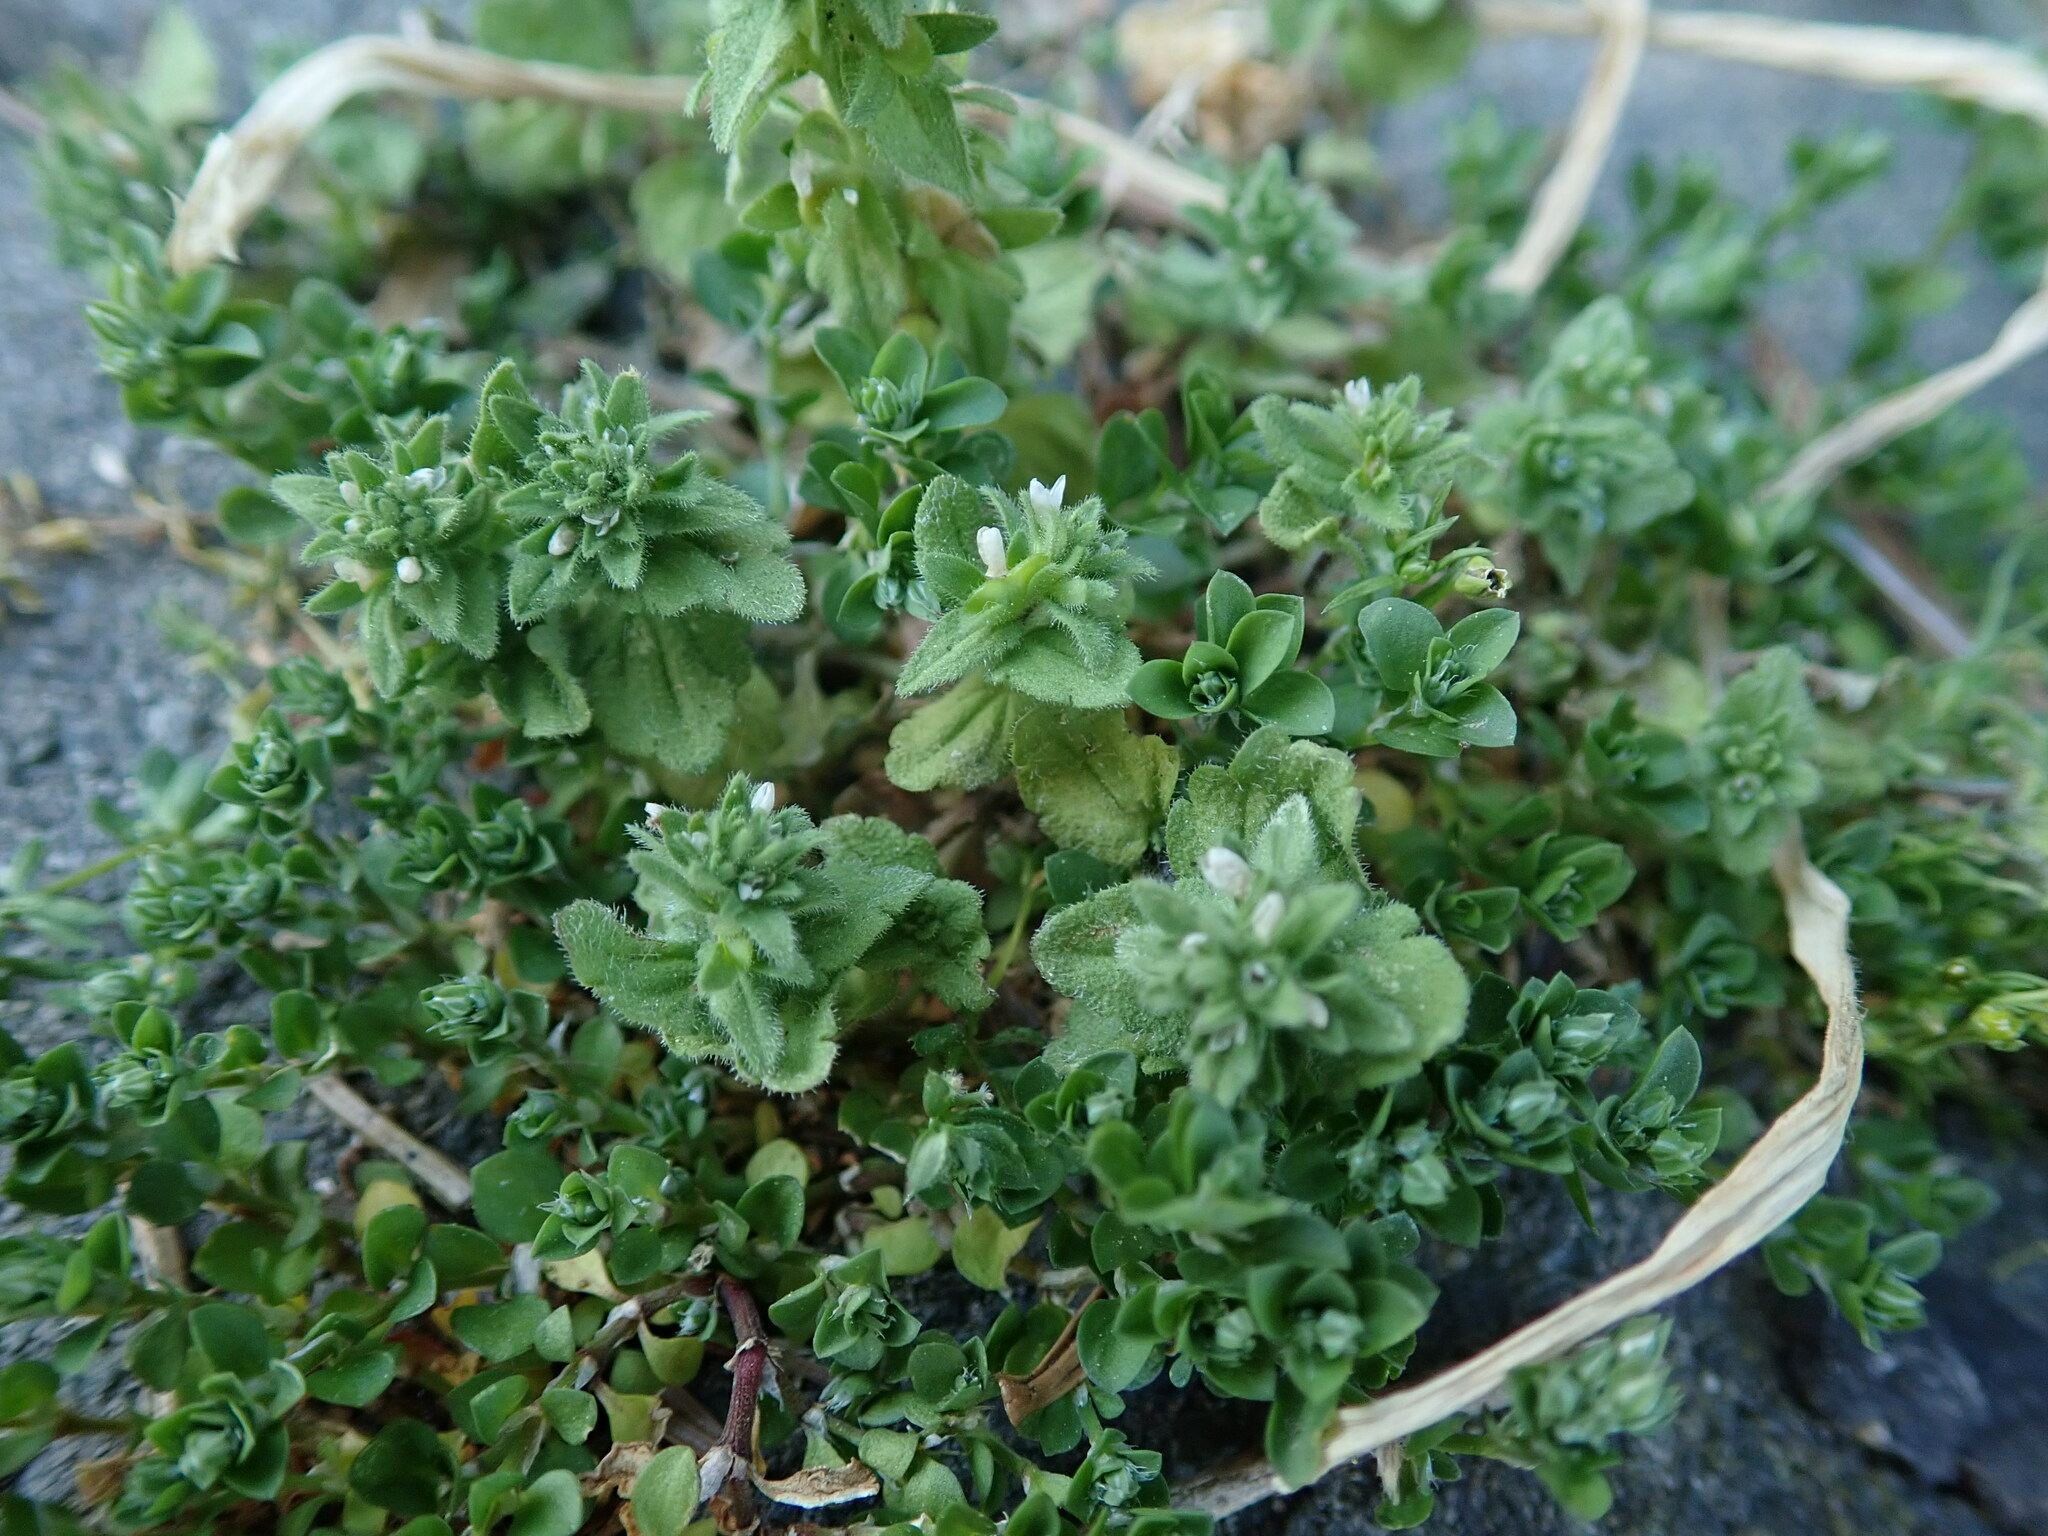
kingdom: Plantae
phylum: Tracheophyta
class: Magnoliopsida
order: Lamiales
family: Plantaginaceae
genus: Veronica
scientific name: Veronica arvensis
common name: Corn speedwell
